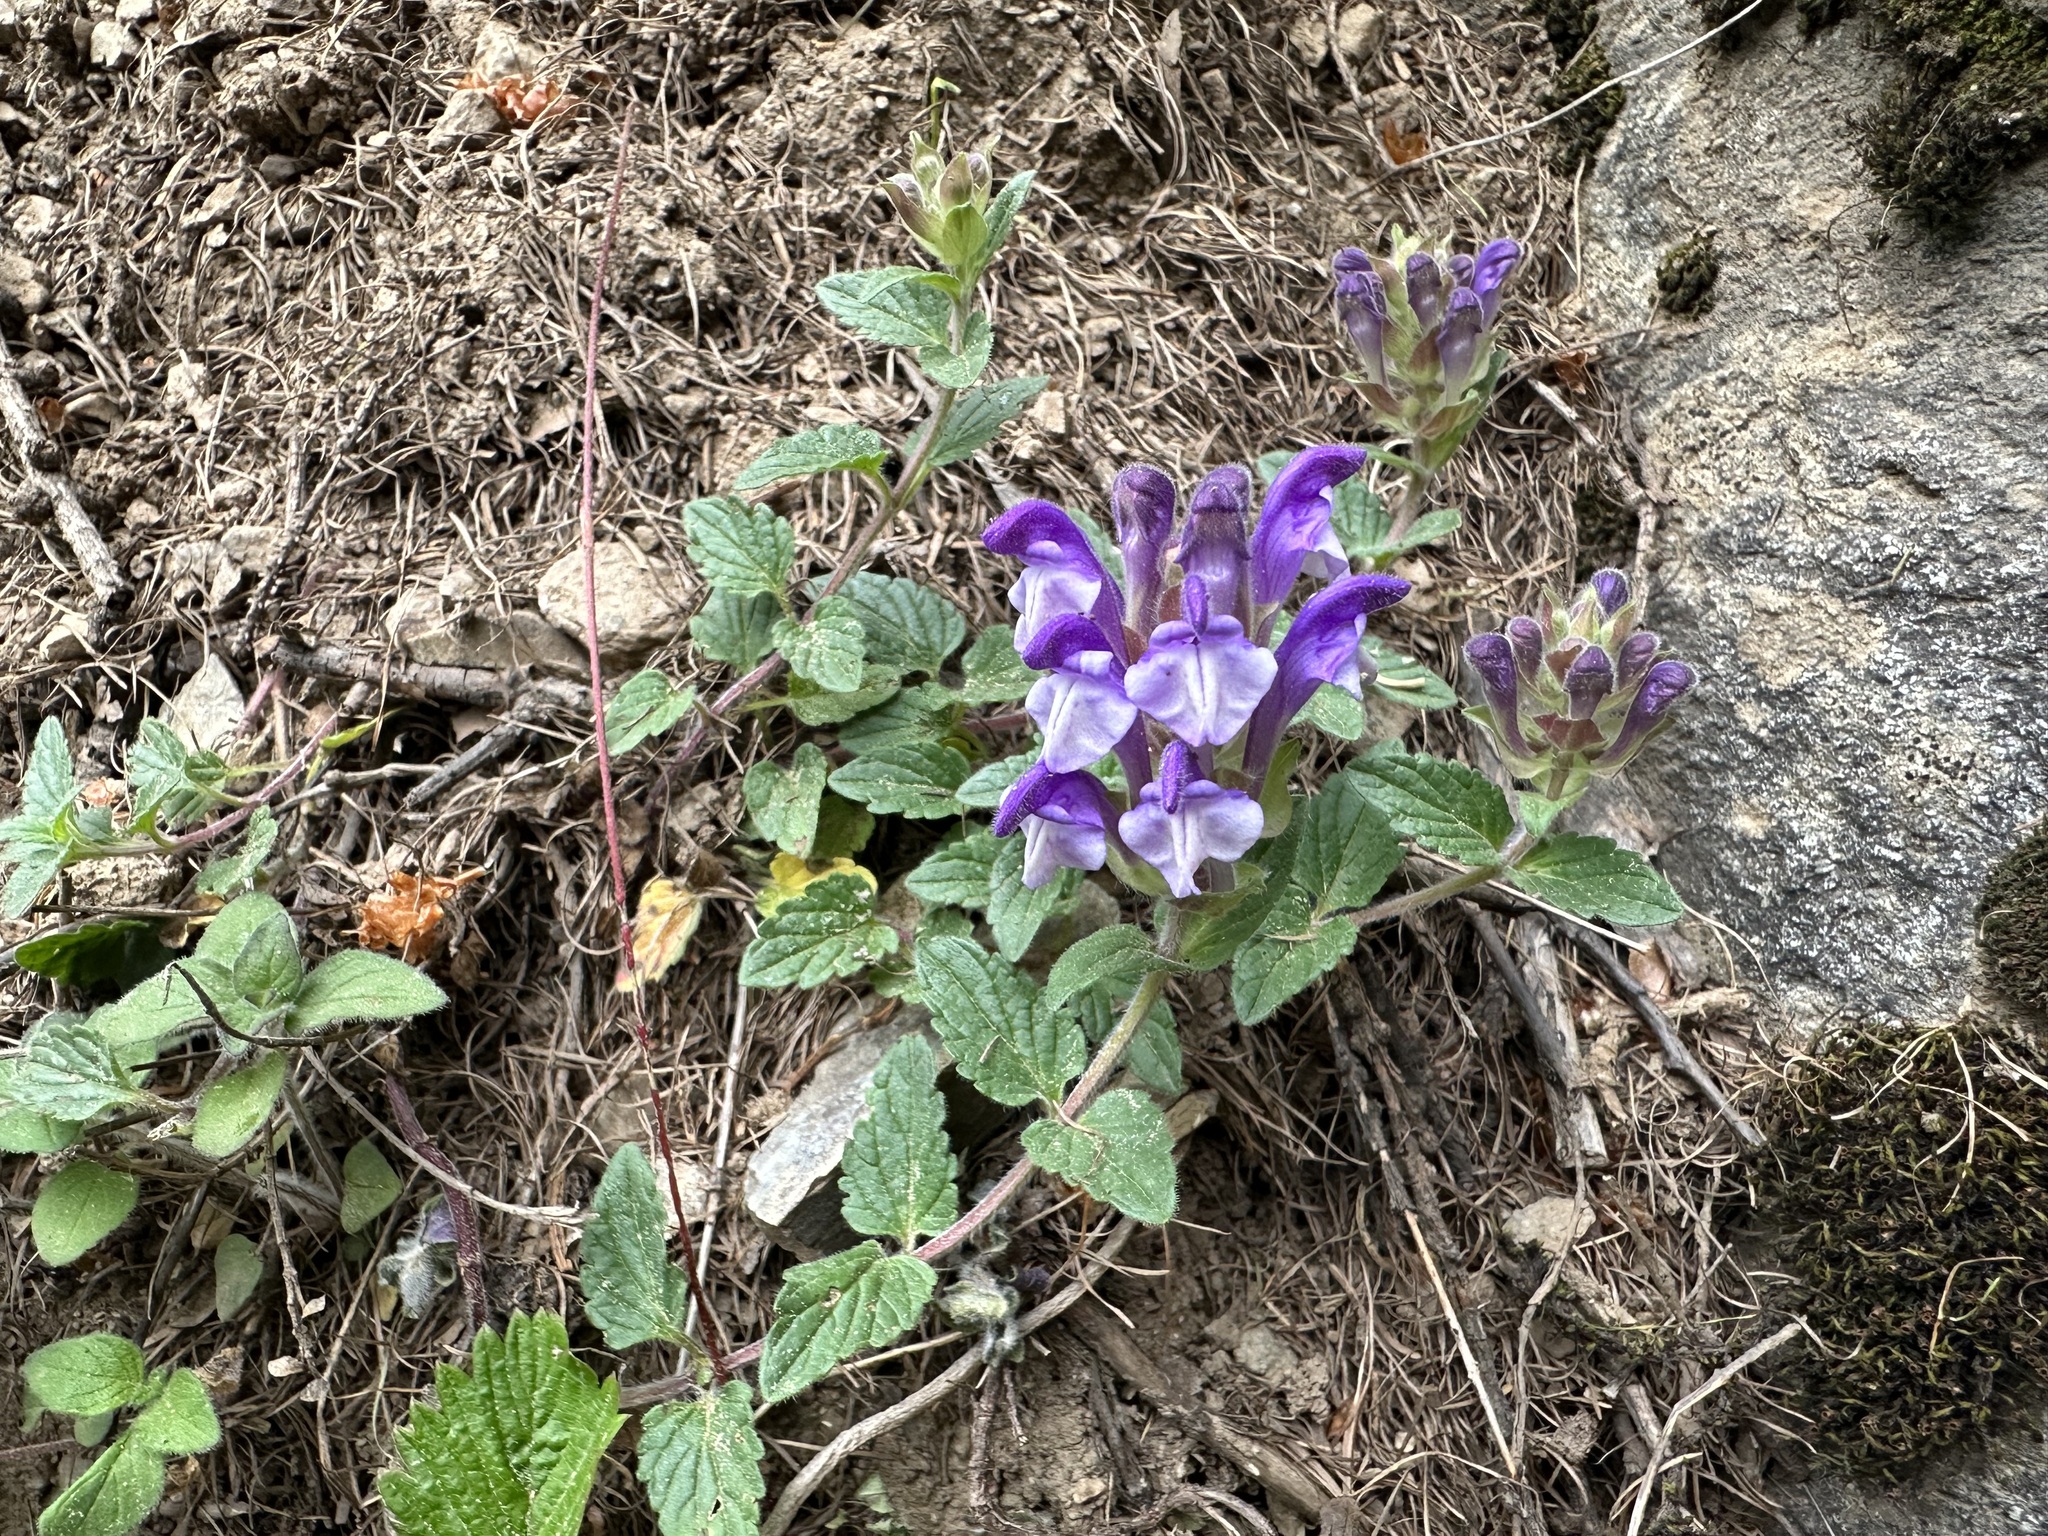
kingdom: Plantae
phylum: Tracheophyta
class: Magnoliopsida
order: Lamiales
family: Lamiaceae
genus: Scutellaria
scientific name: Scutellaria alpina
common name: Alpine scullcap
